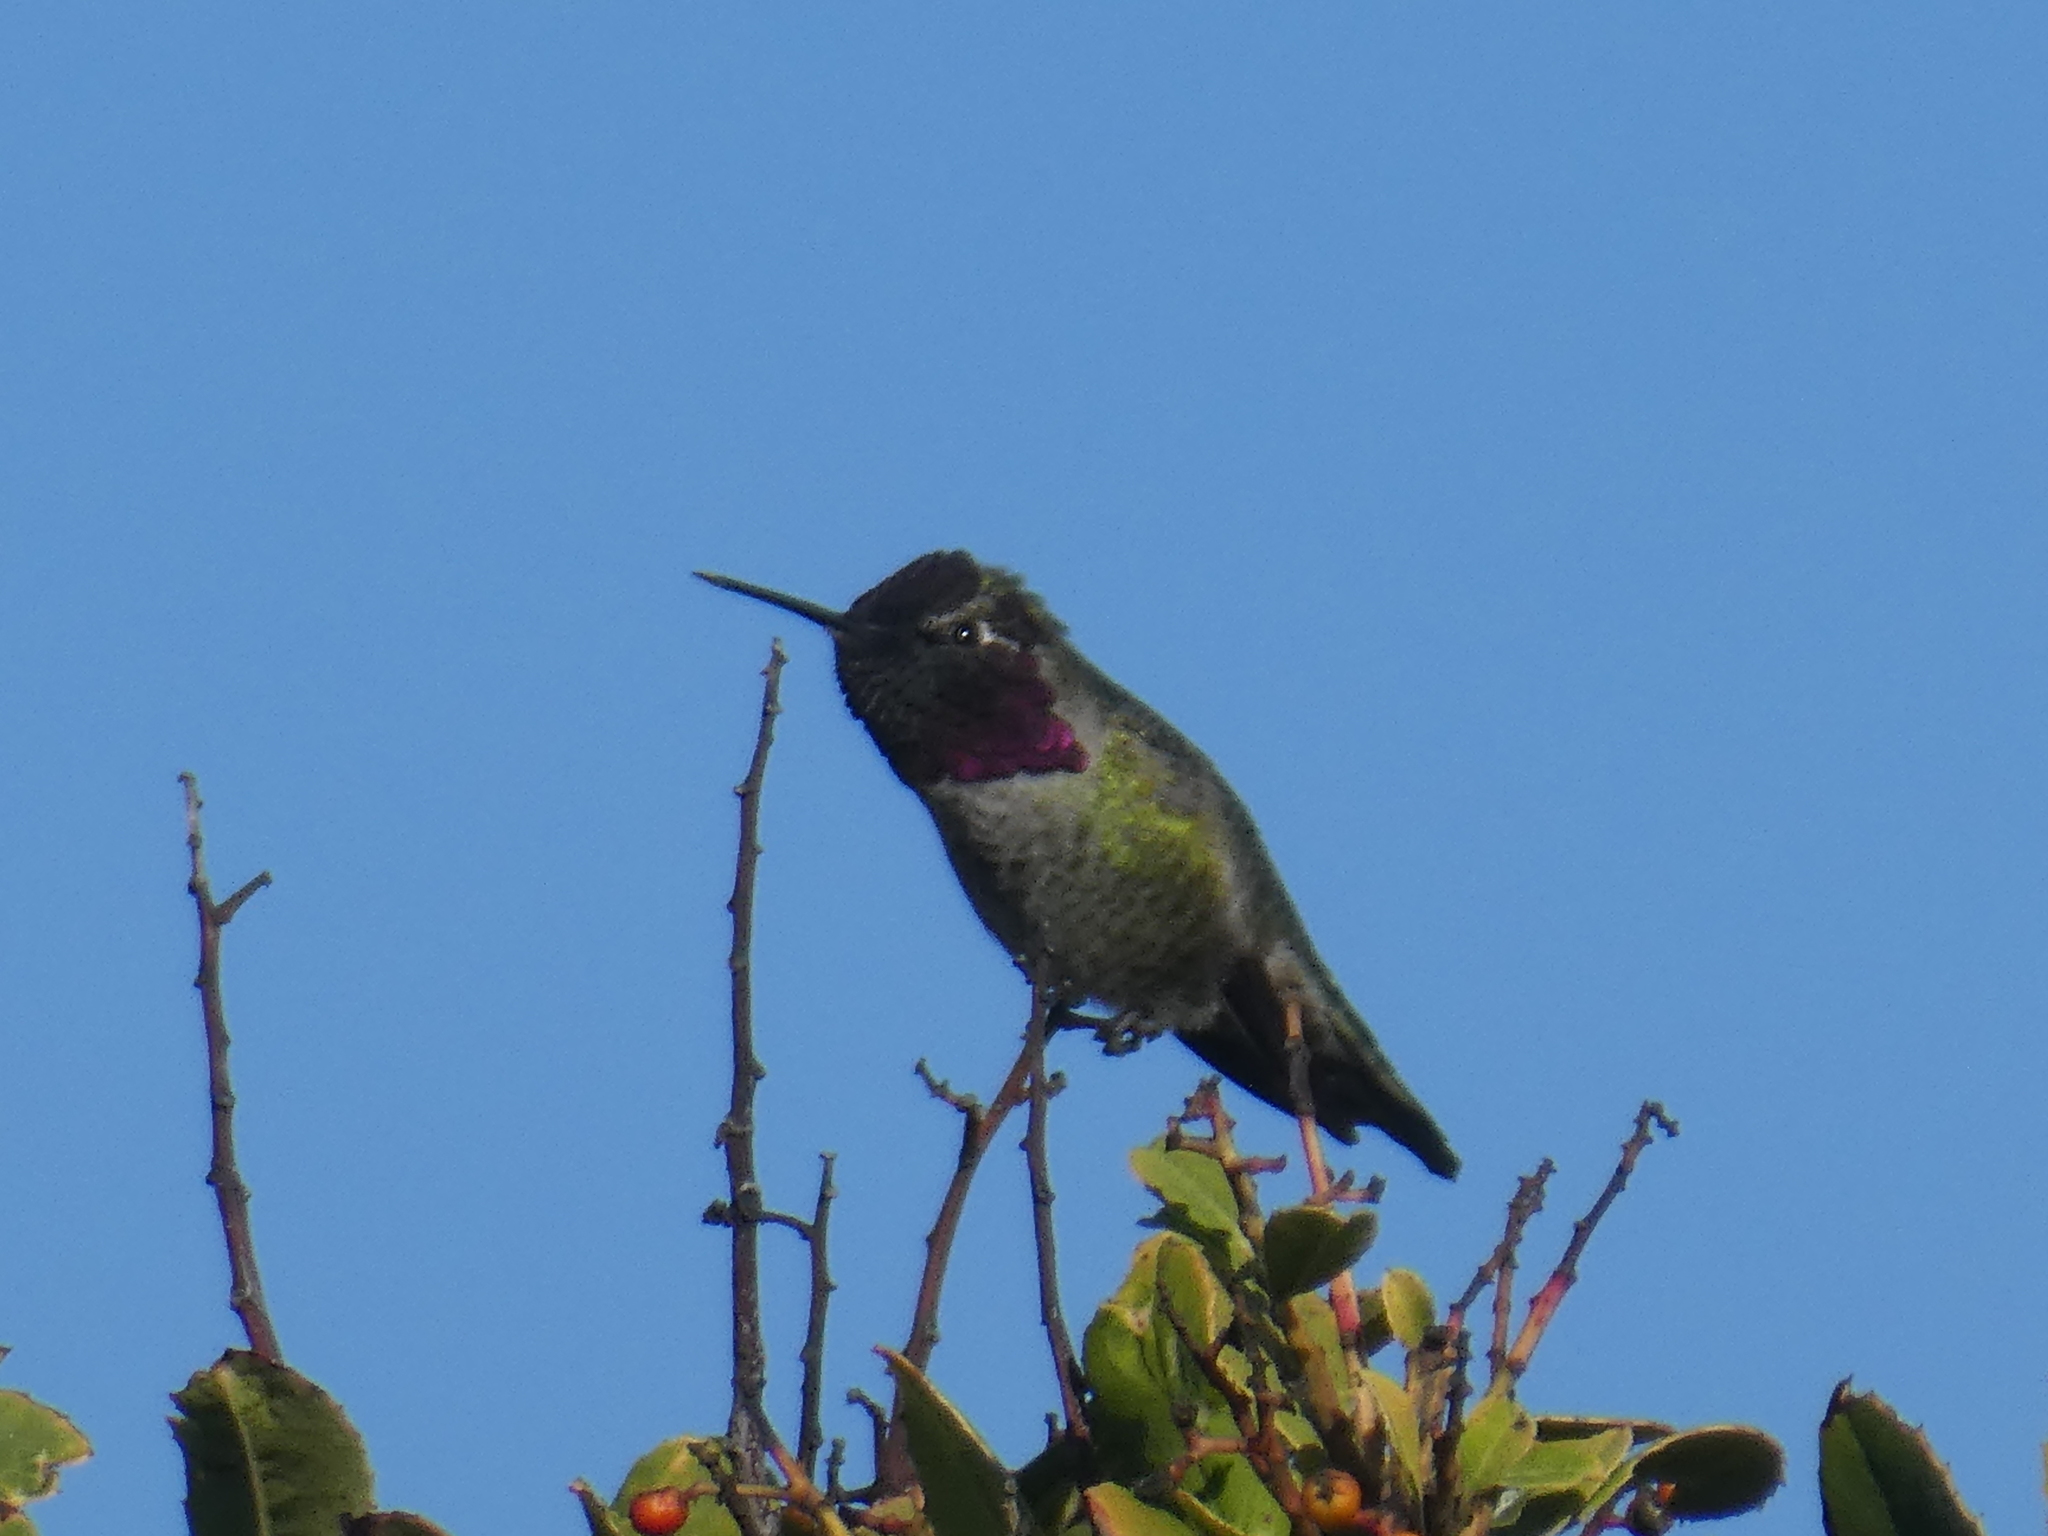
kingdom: Animalia
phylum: Chordata
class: Aves
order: Apodiformes
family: Trochilidae
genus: Calypte
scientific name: Calypte anna
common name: Anna's hummingbird
